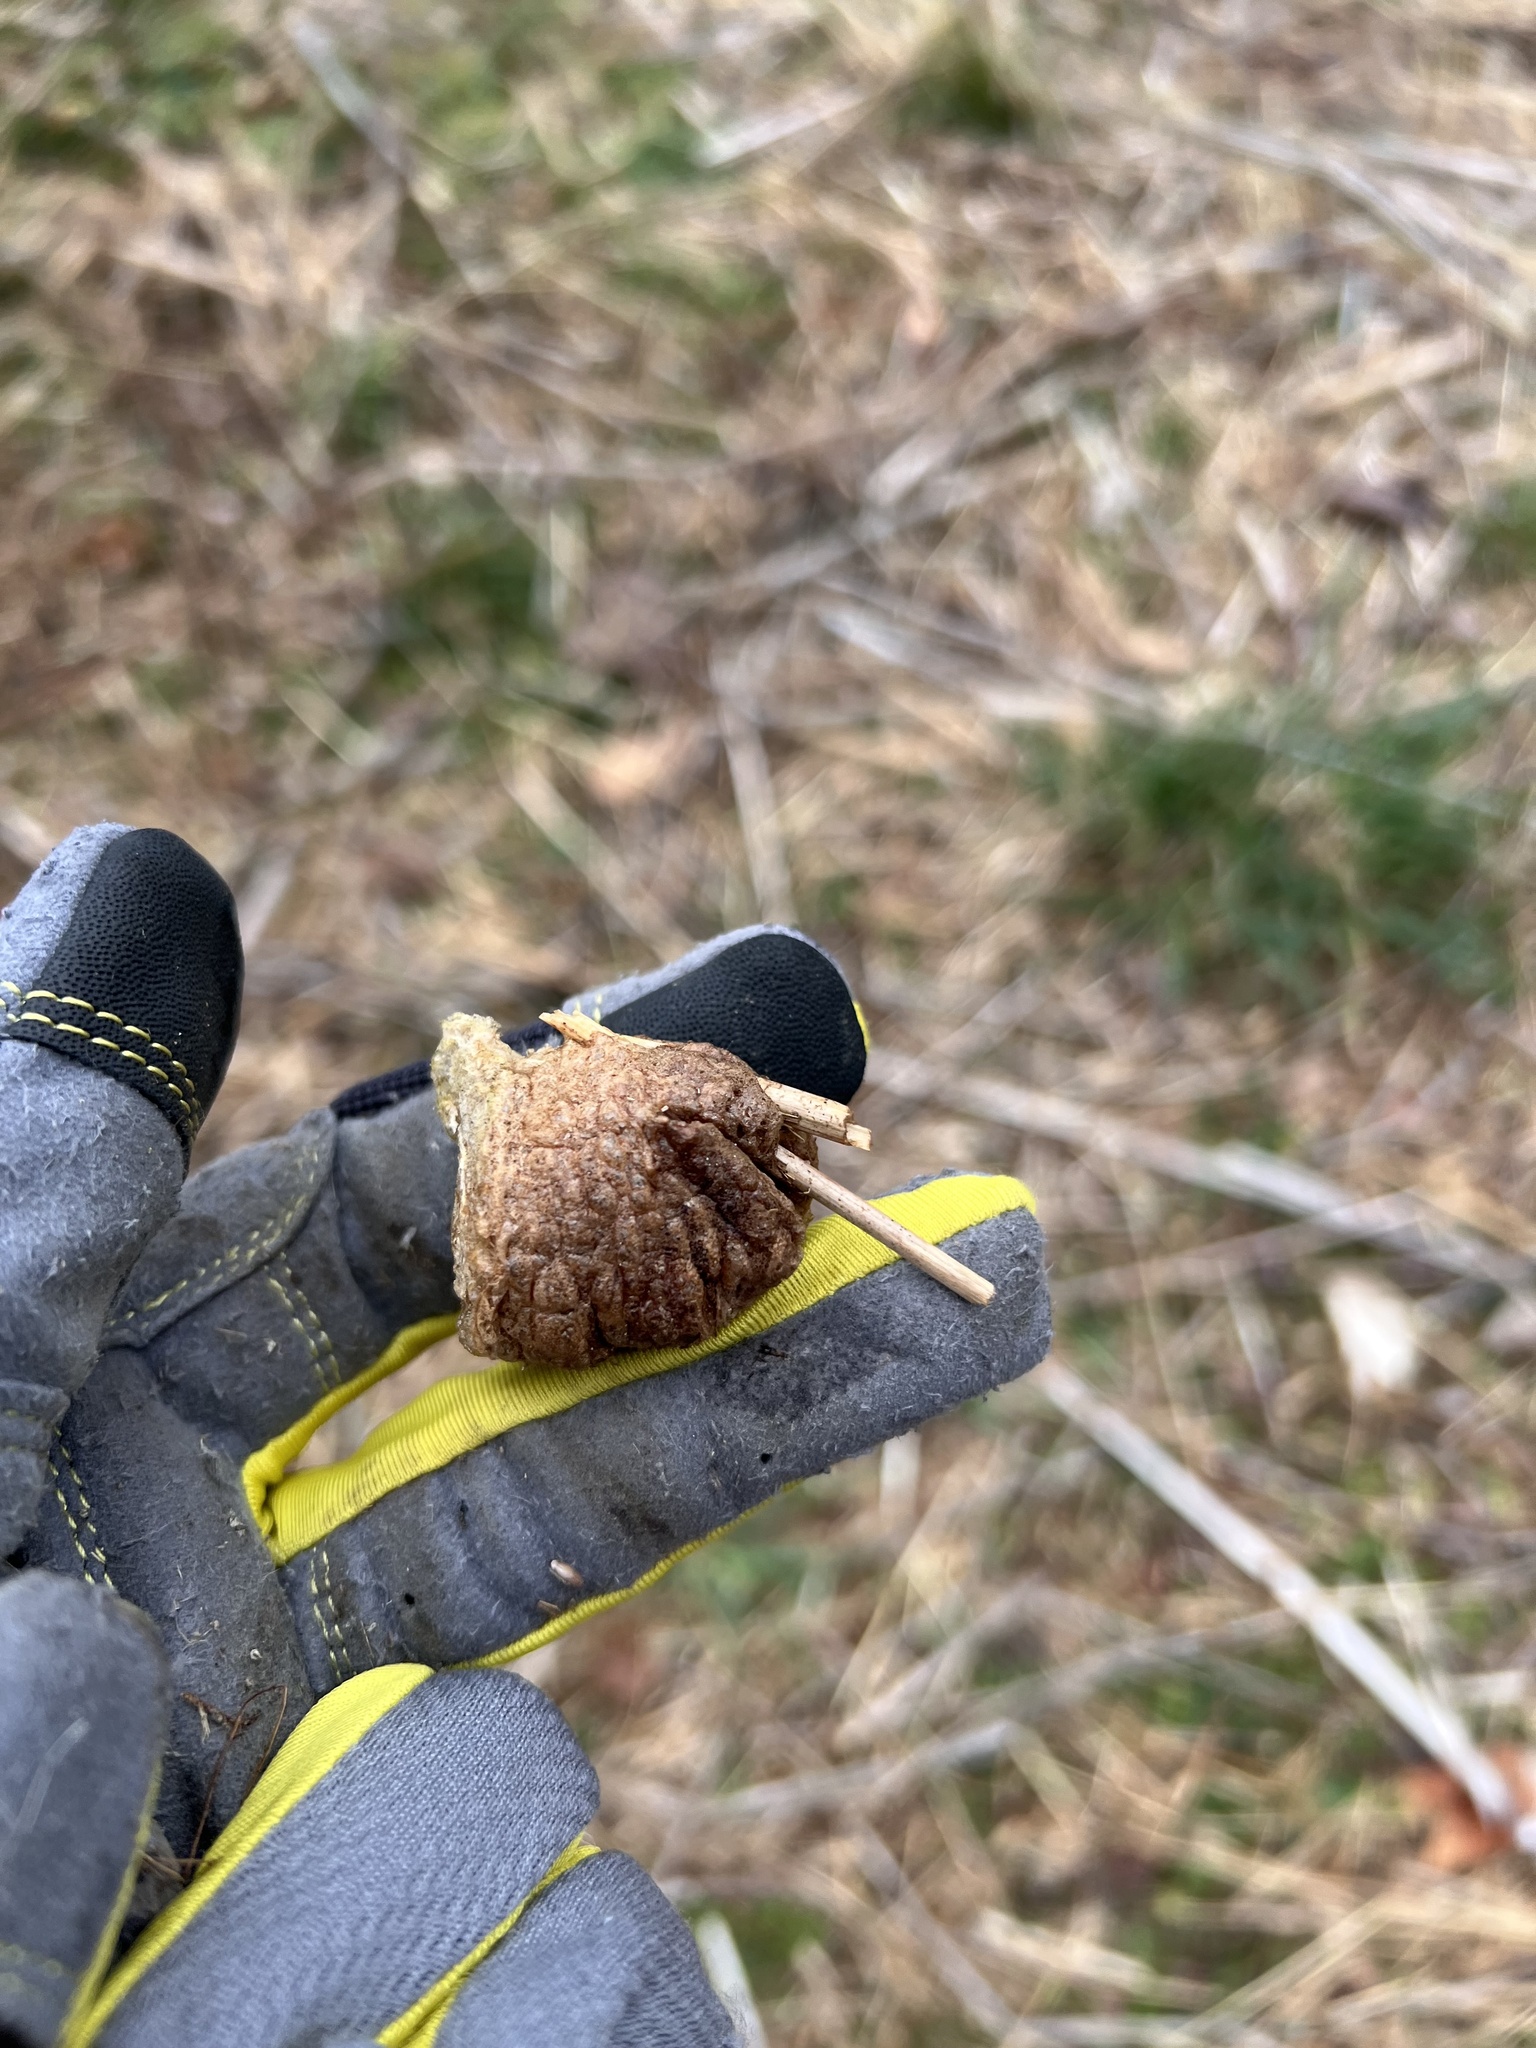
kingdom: Animalia
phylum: Arthropoda
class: Insecta
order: Mantodea
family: Mantidae
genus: Tenodera
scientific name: Tenodera sinensis
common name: Chinese mantis
